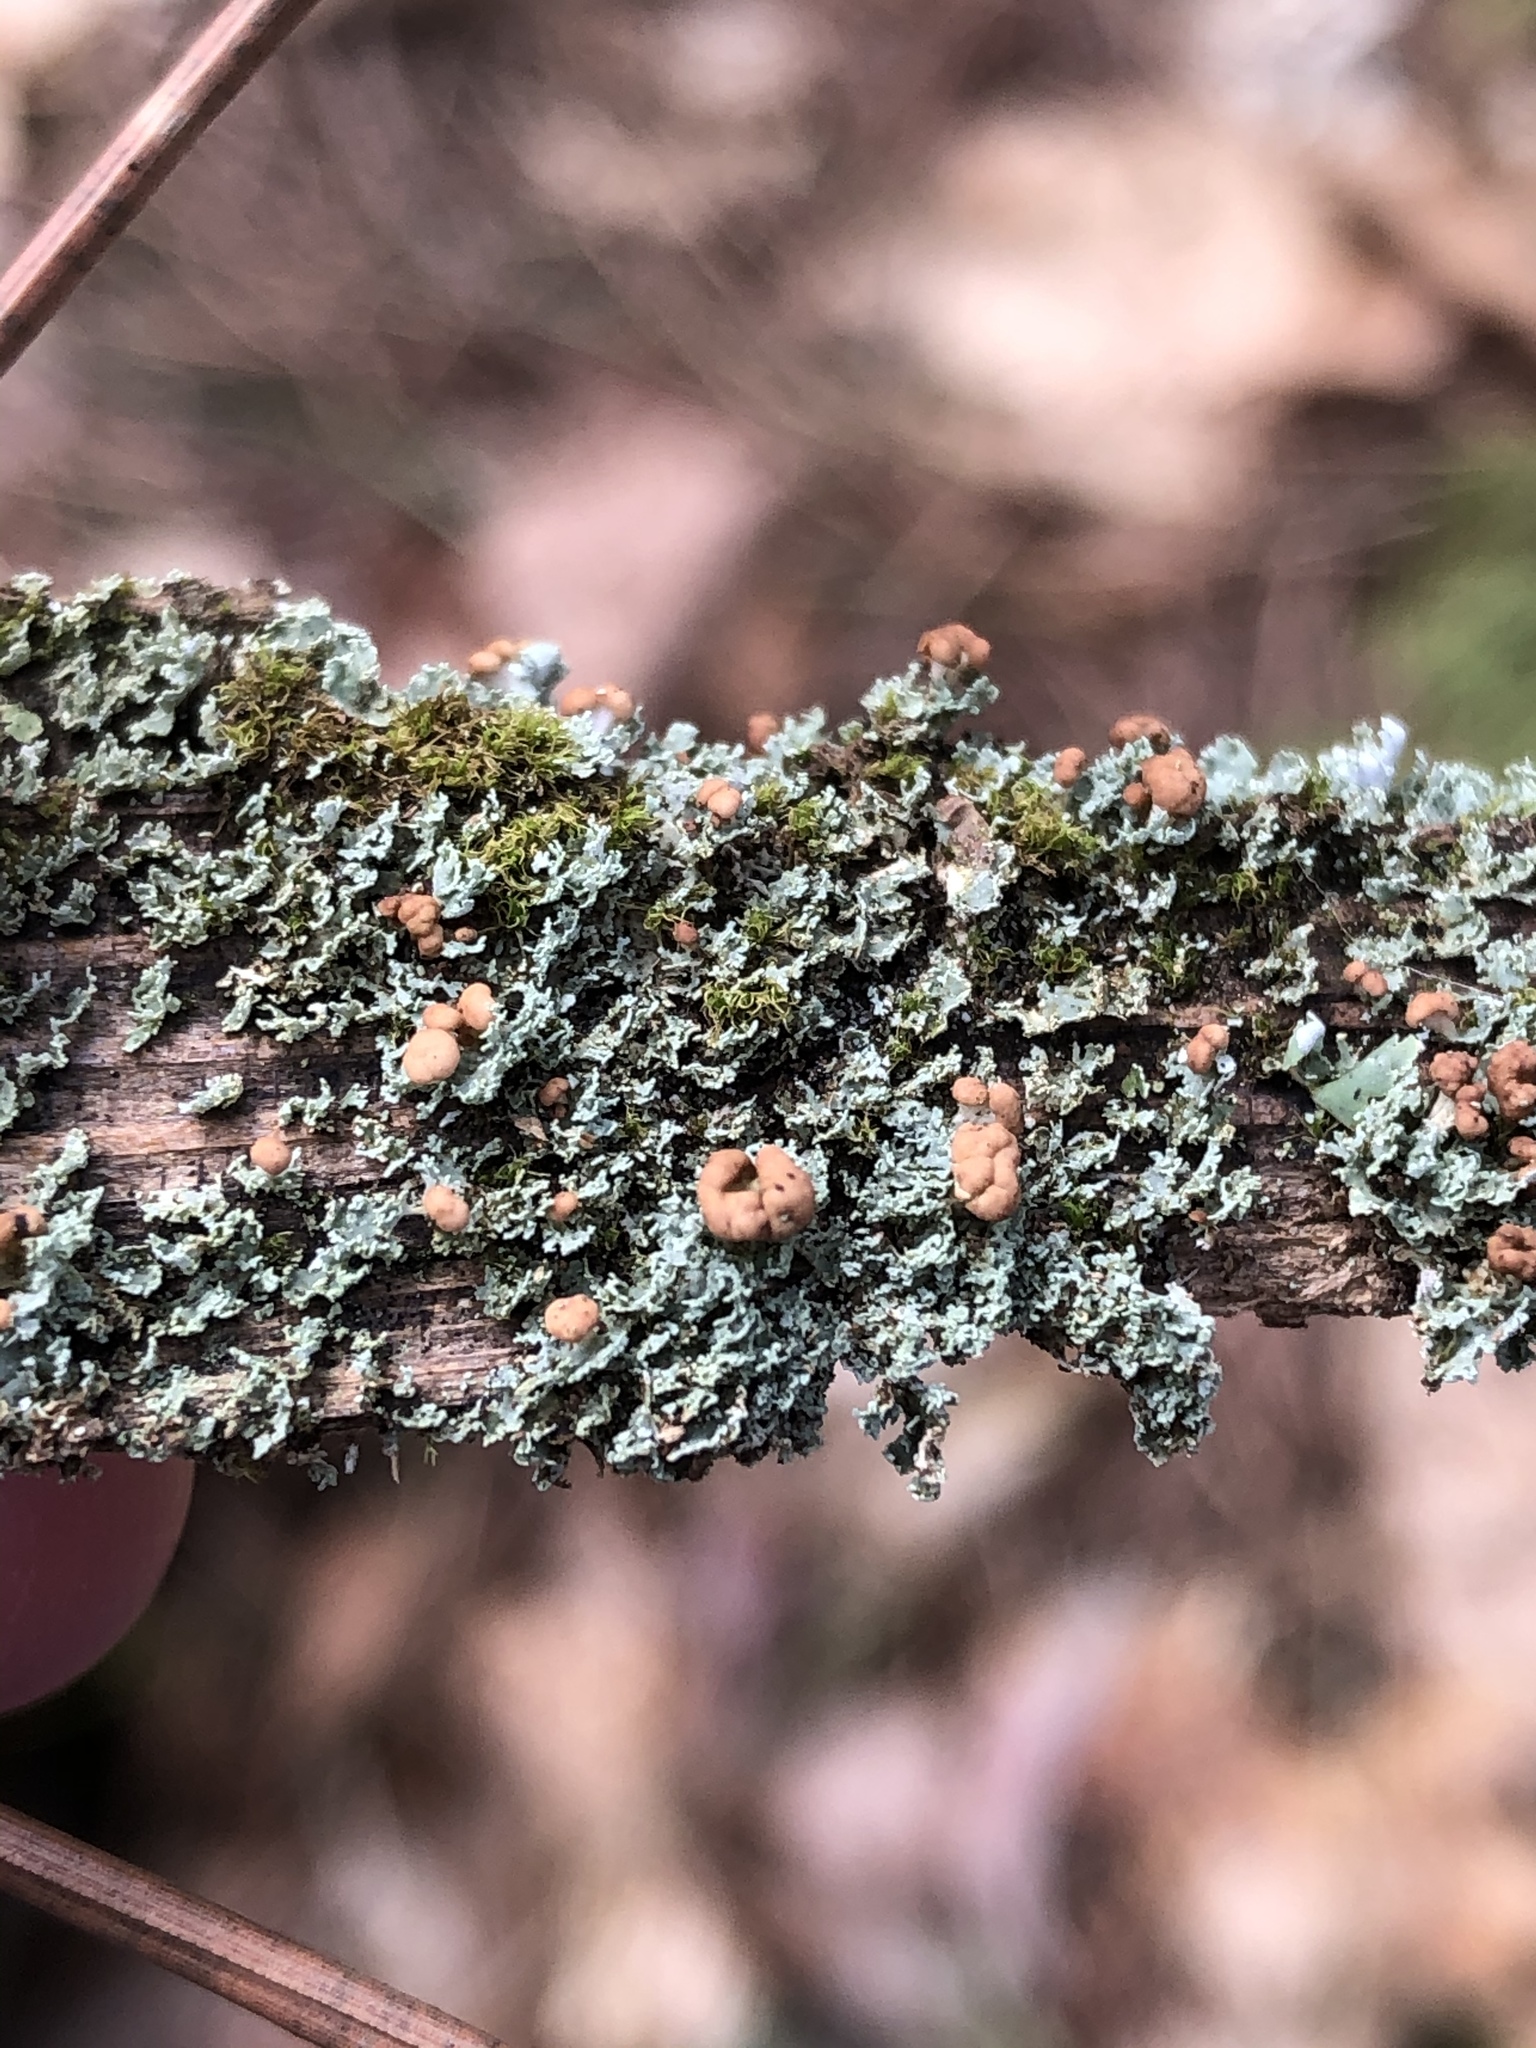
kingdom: Fungi
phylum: Ascomycota
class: Lecanoromycetes
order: Lecanorales
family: Cladoniaceae
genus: Cladonia
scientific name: Cladonia peziziformis
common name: Cup lichen
